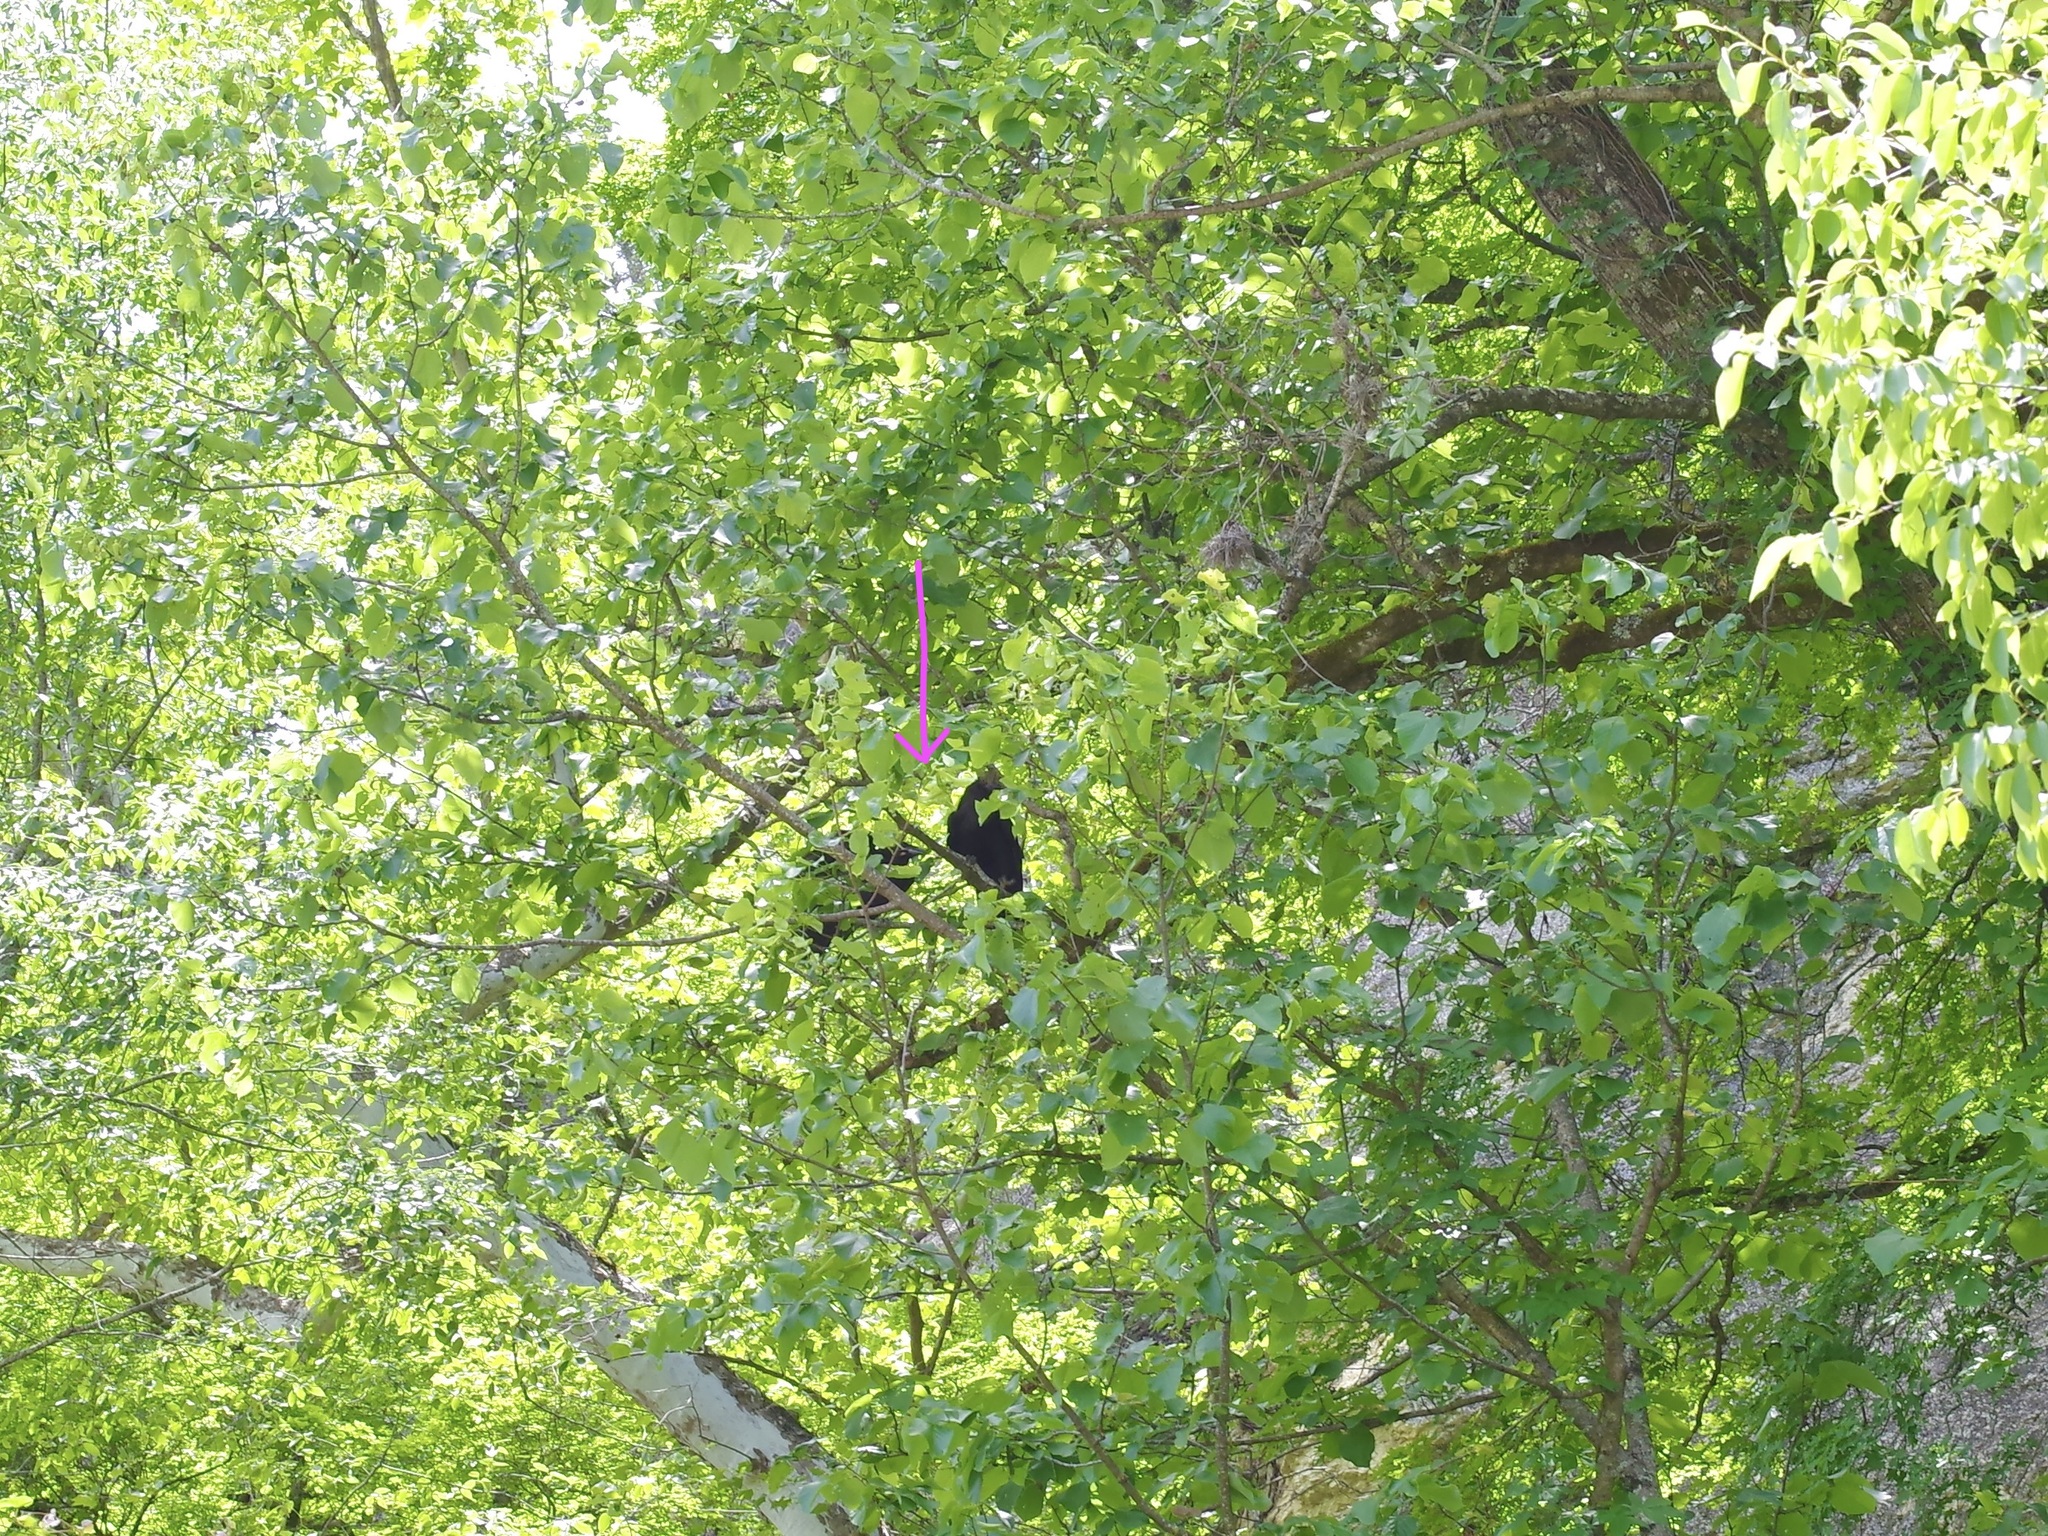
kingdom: Animalia
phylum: Chordata
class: Aves
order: Passeriformes
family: Corvidae
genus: Corvus
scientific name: Corvus brachyrhynchos
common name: American crow
